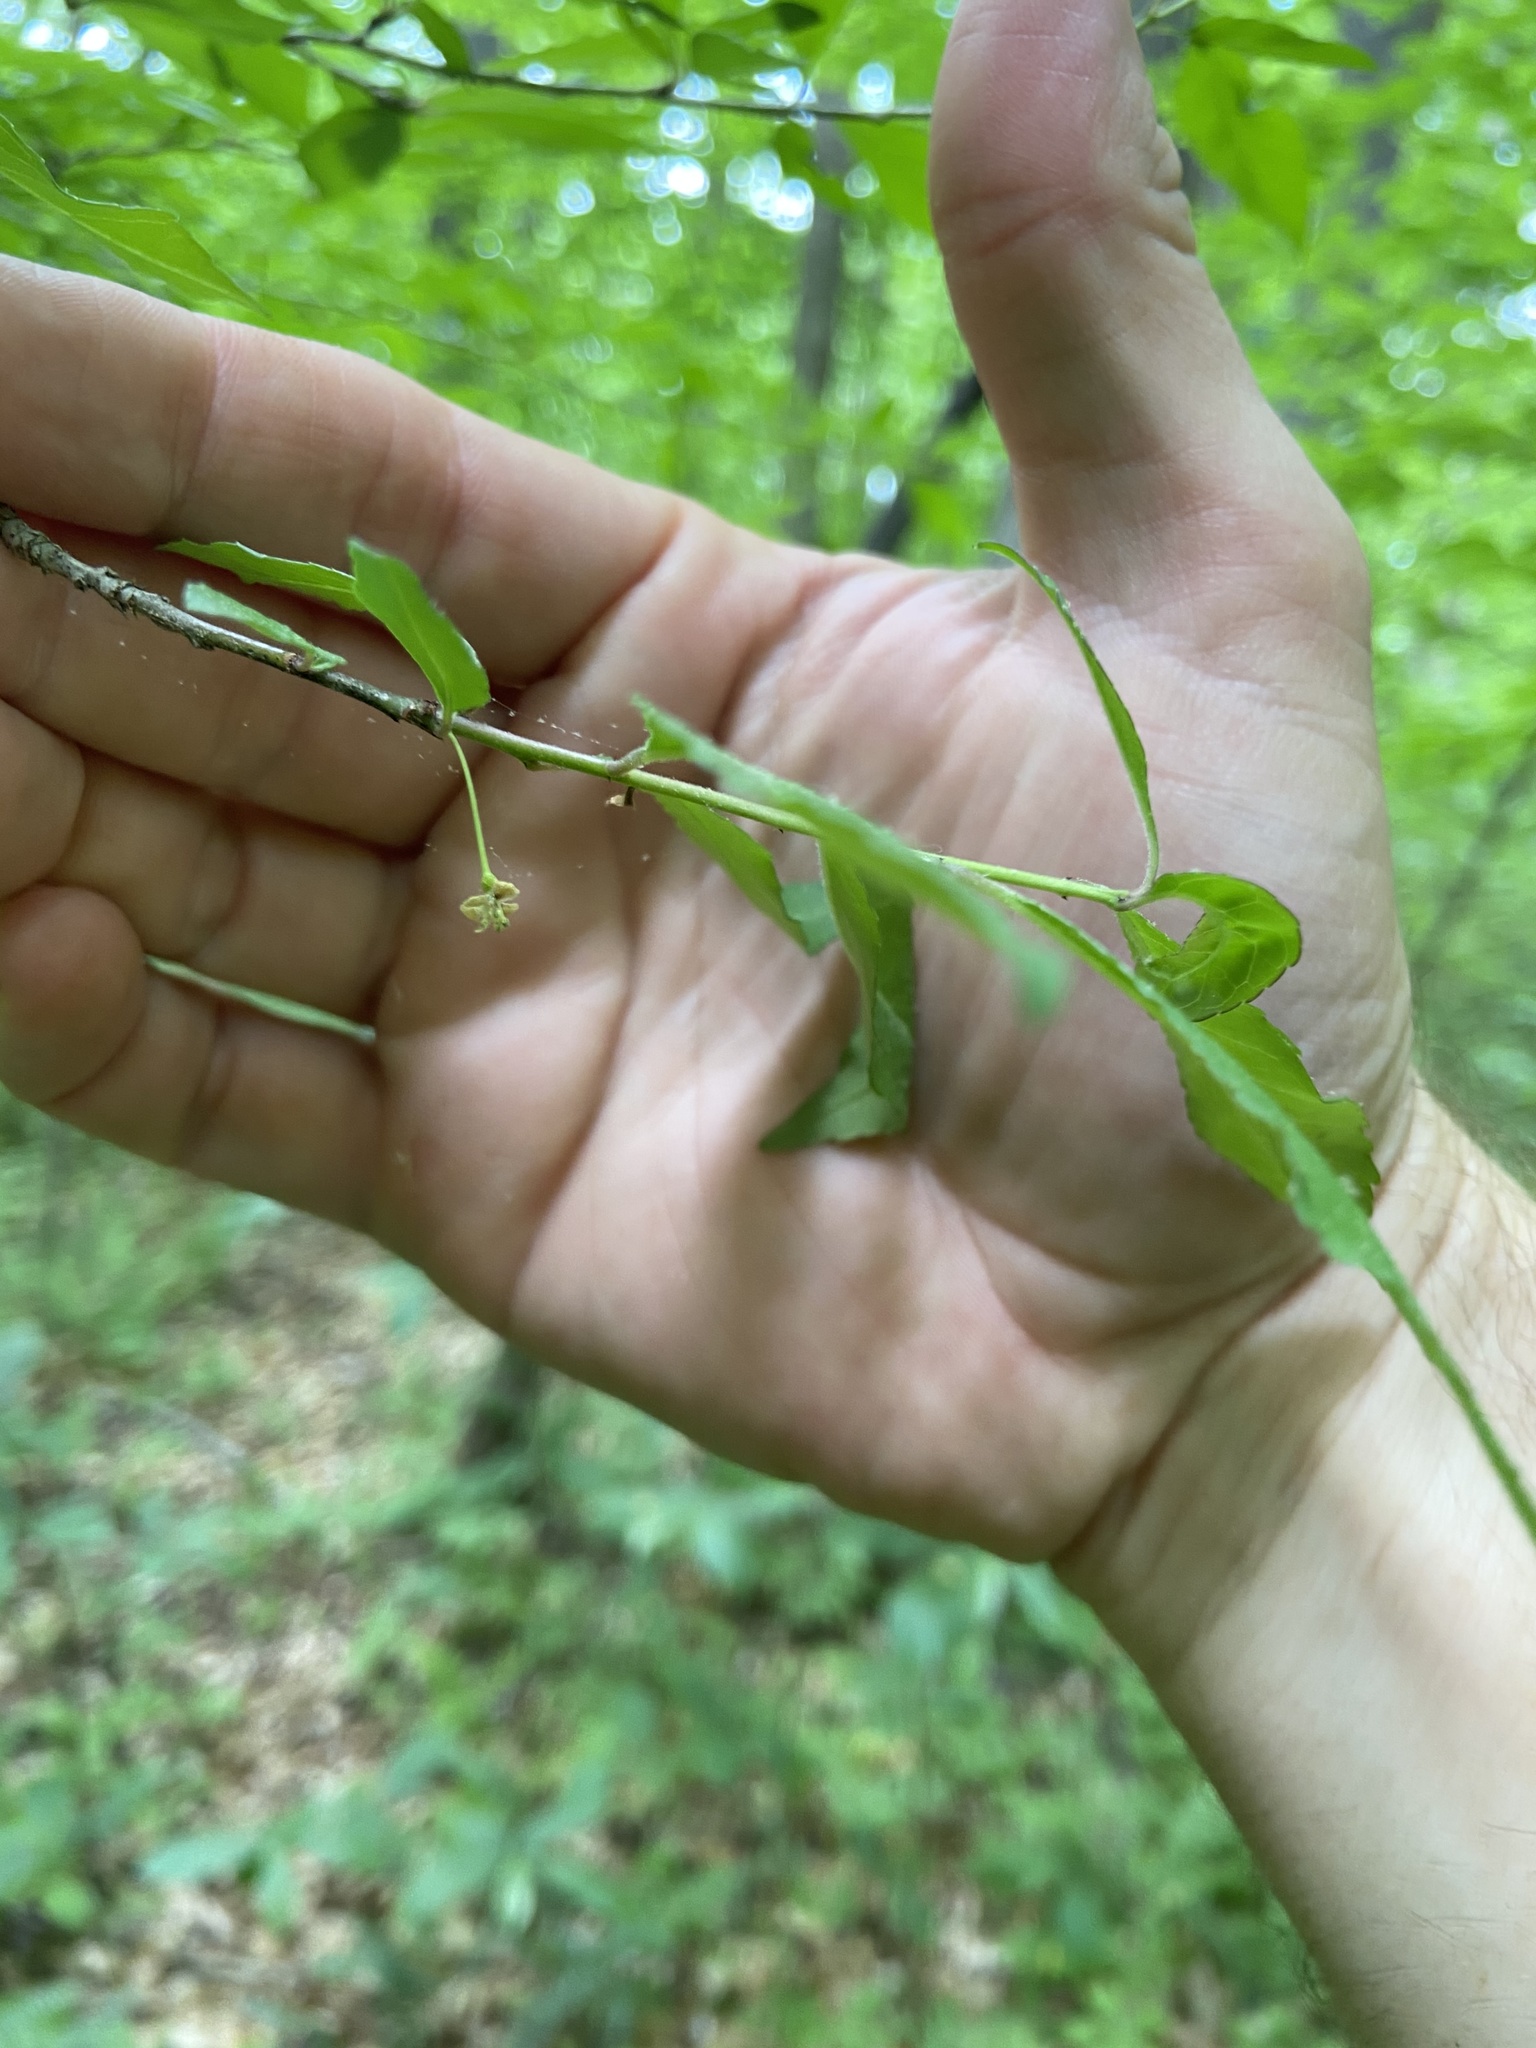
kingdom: Plantae
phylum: Tracheophyta
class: Magnoliopsida
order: Aquifoliales
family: Aquifoliaceae
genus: Ilex
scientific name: Ilex longipes
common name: Georgia holly
